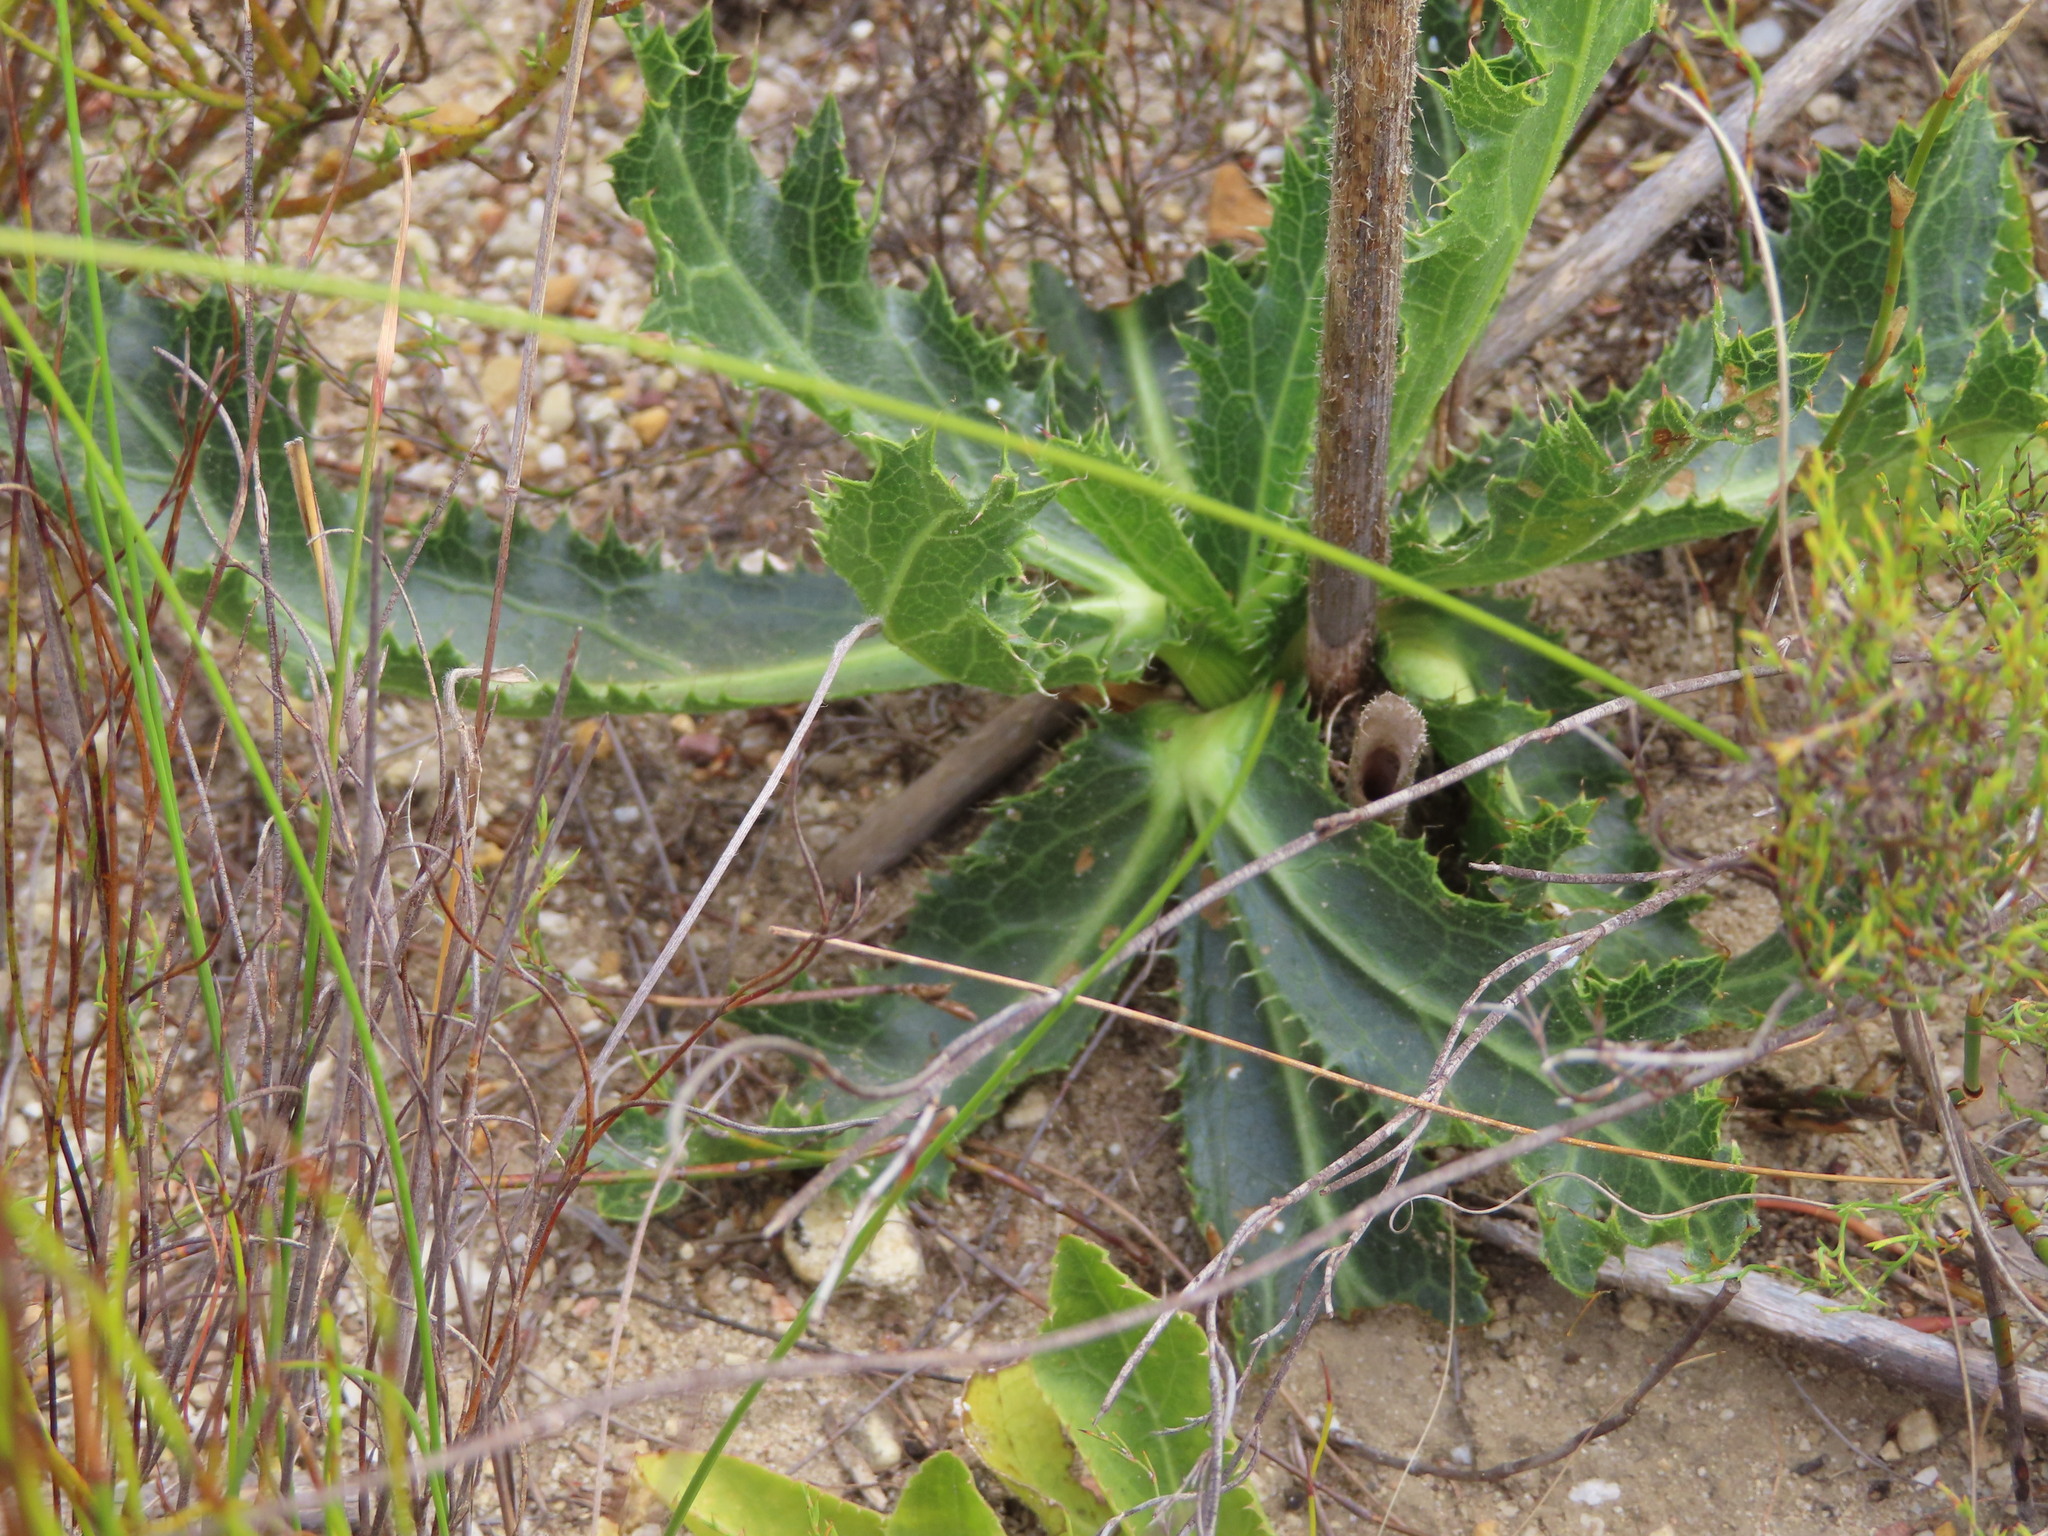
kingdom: Plantae
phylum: Tracheophyta
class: Magnoliopsida
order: Apiales
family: Apiaceae
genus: Lichtensteinia
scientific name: Lichtensteinia lacera
